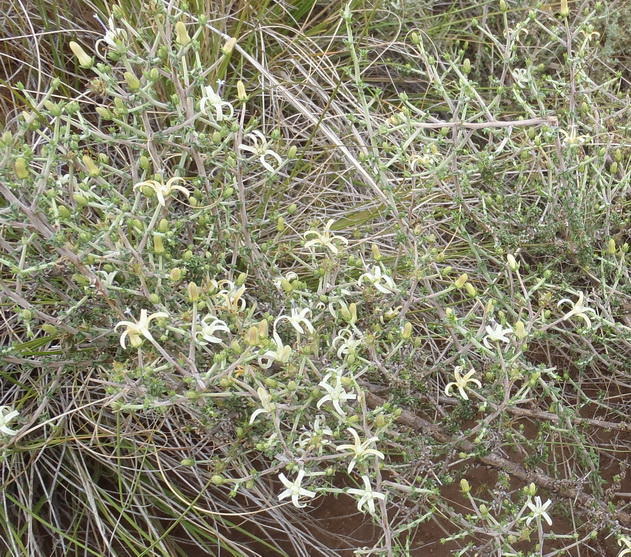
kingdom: Plantae
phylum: Tracheophyta
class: Magnoliopsida
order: Asterales
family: Campanulaceae
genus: Wahlenbergia
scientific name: Wahlenbergia nodosa
